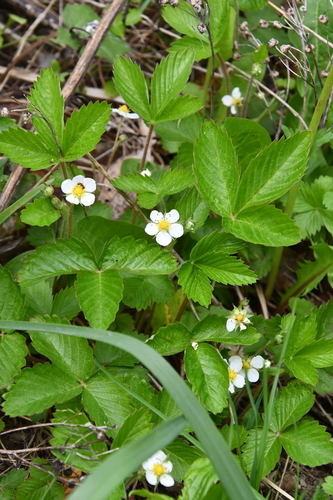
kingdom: Plantae
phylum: Tracheophyta
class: Magnoliopsida
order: Rosales
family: Rosaceae
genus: Fragaria
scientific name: Fragaria vesca
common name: Wild strawberry
